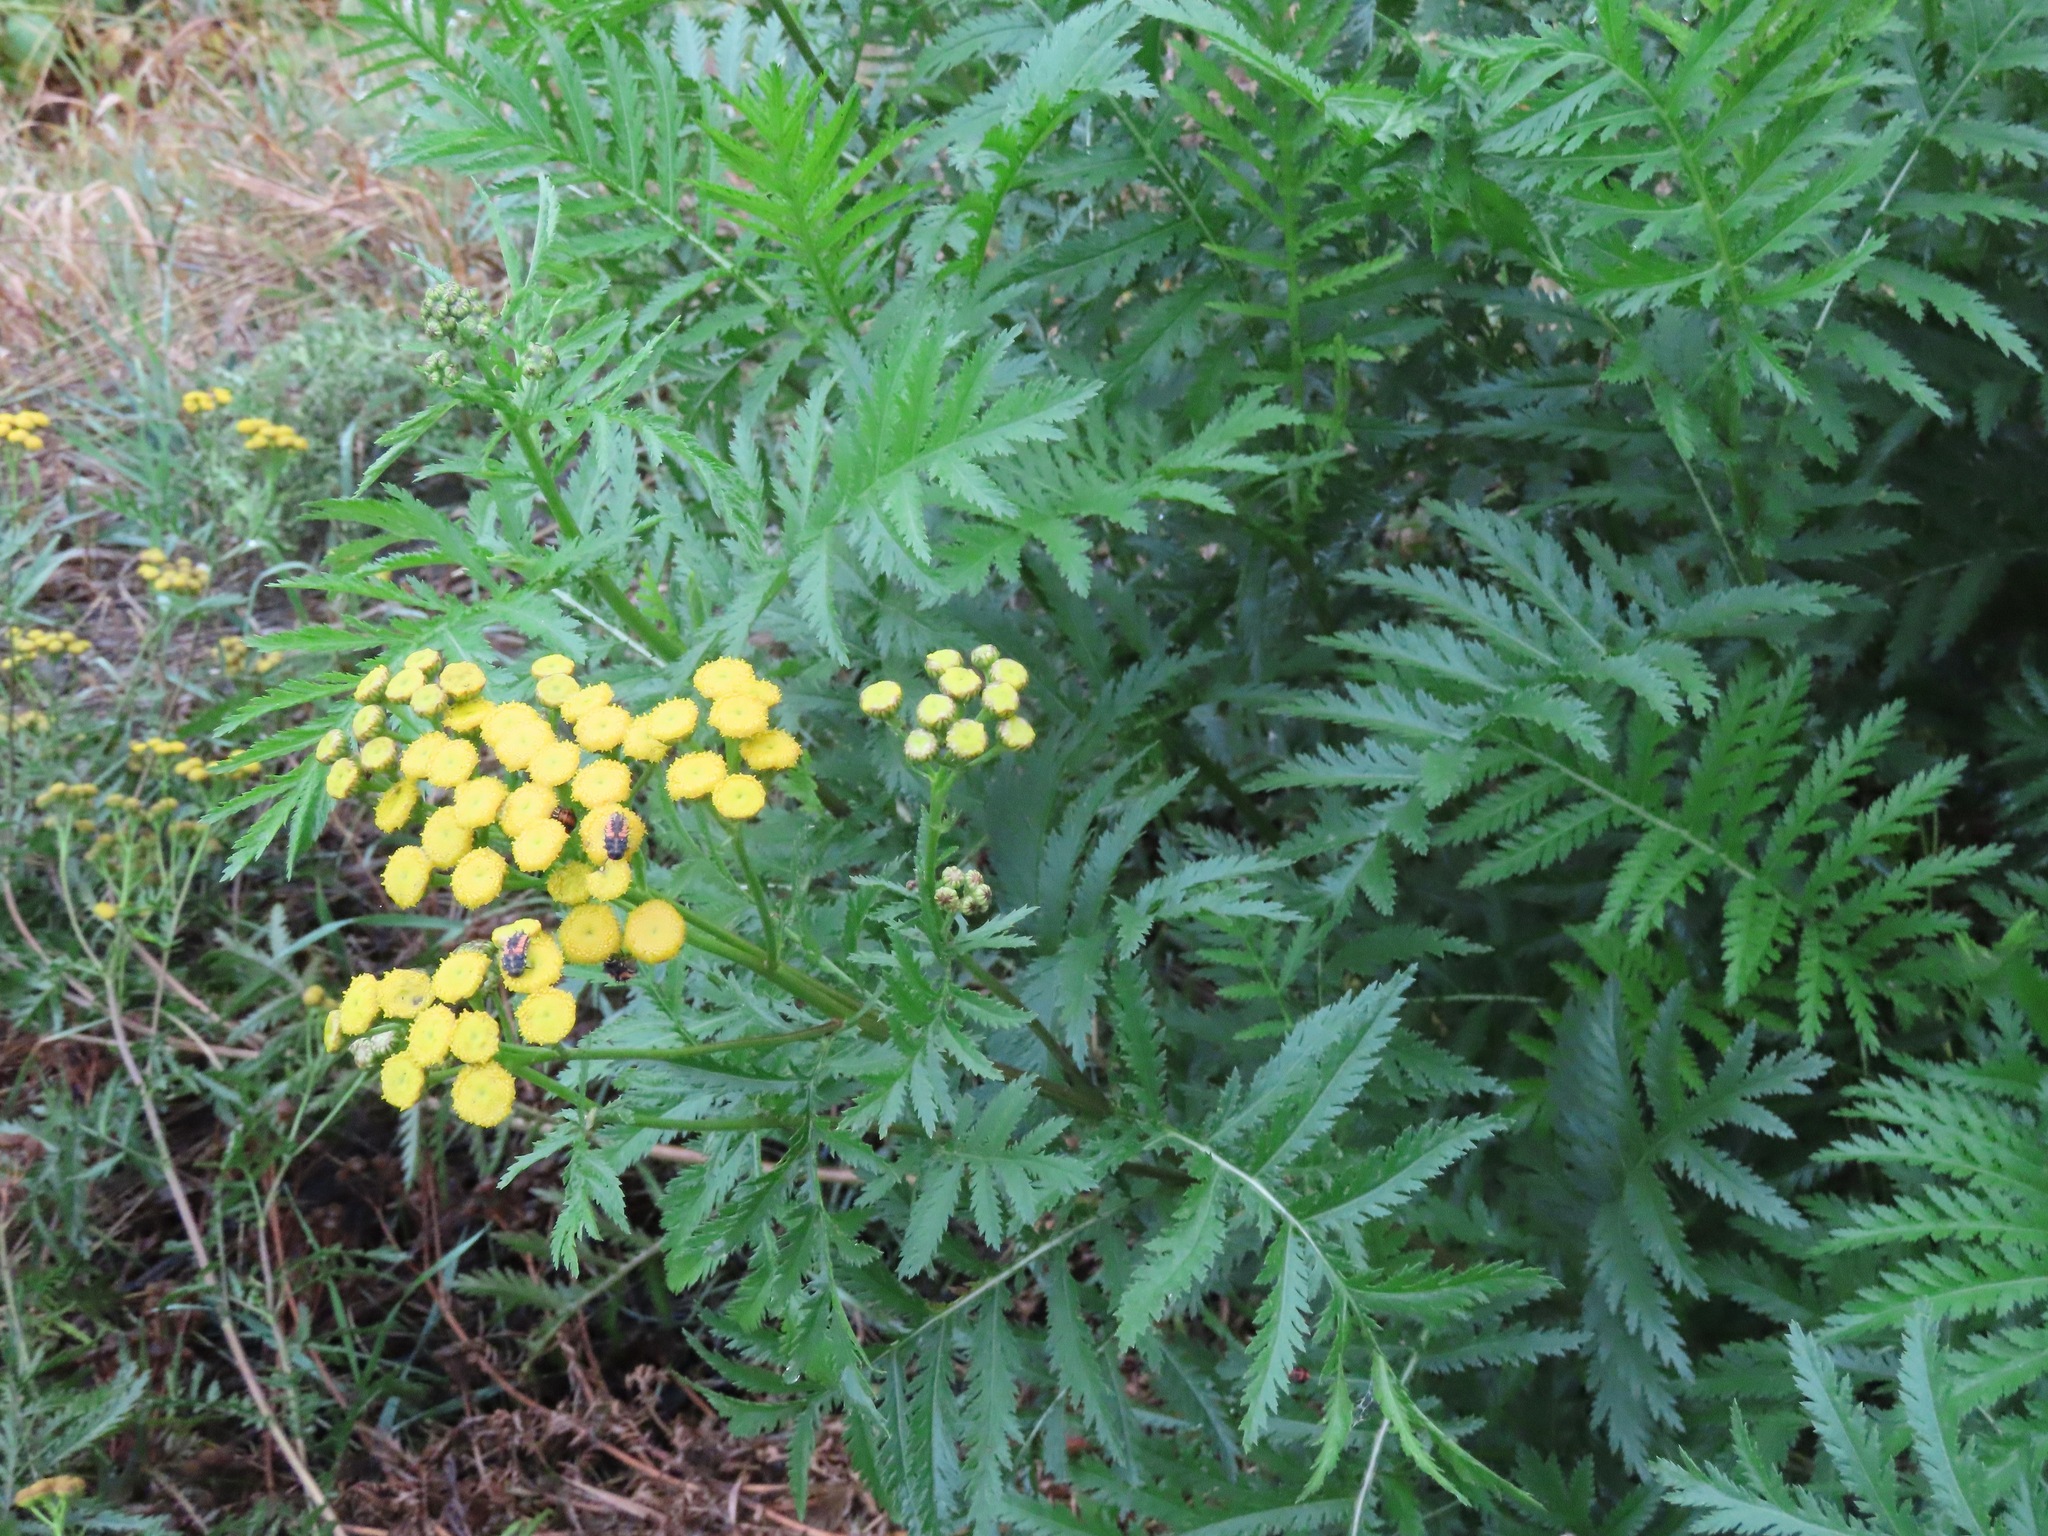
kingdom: Plantae
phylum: Tracheophyta
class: Magnoliopsida
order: Asterales
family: Asteraceae
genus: Tanacetum
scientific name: Tanacetum vulgare
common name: Common tansy
